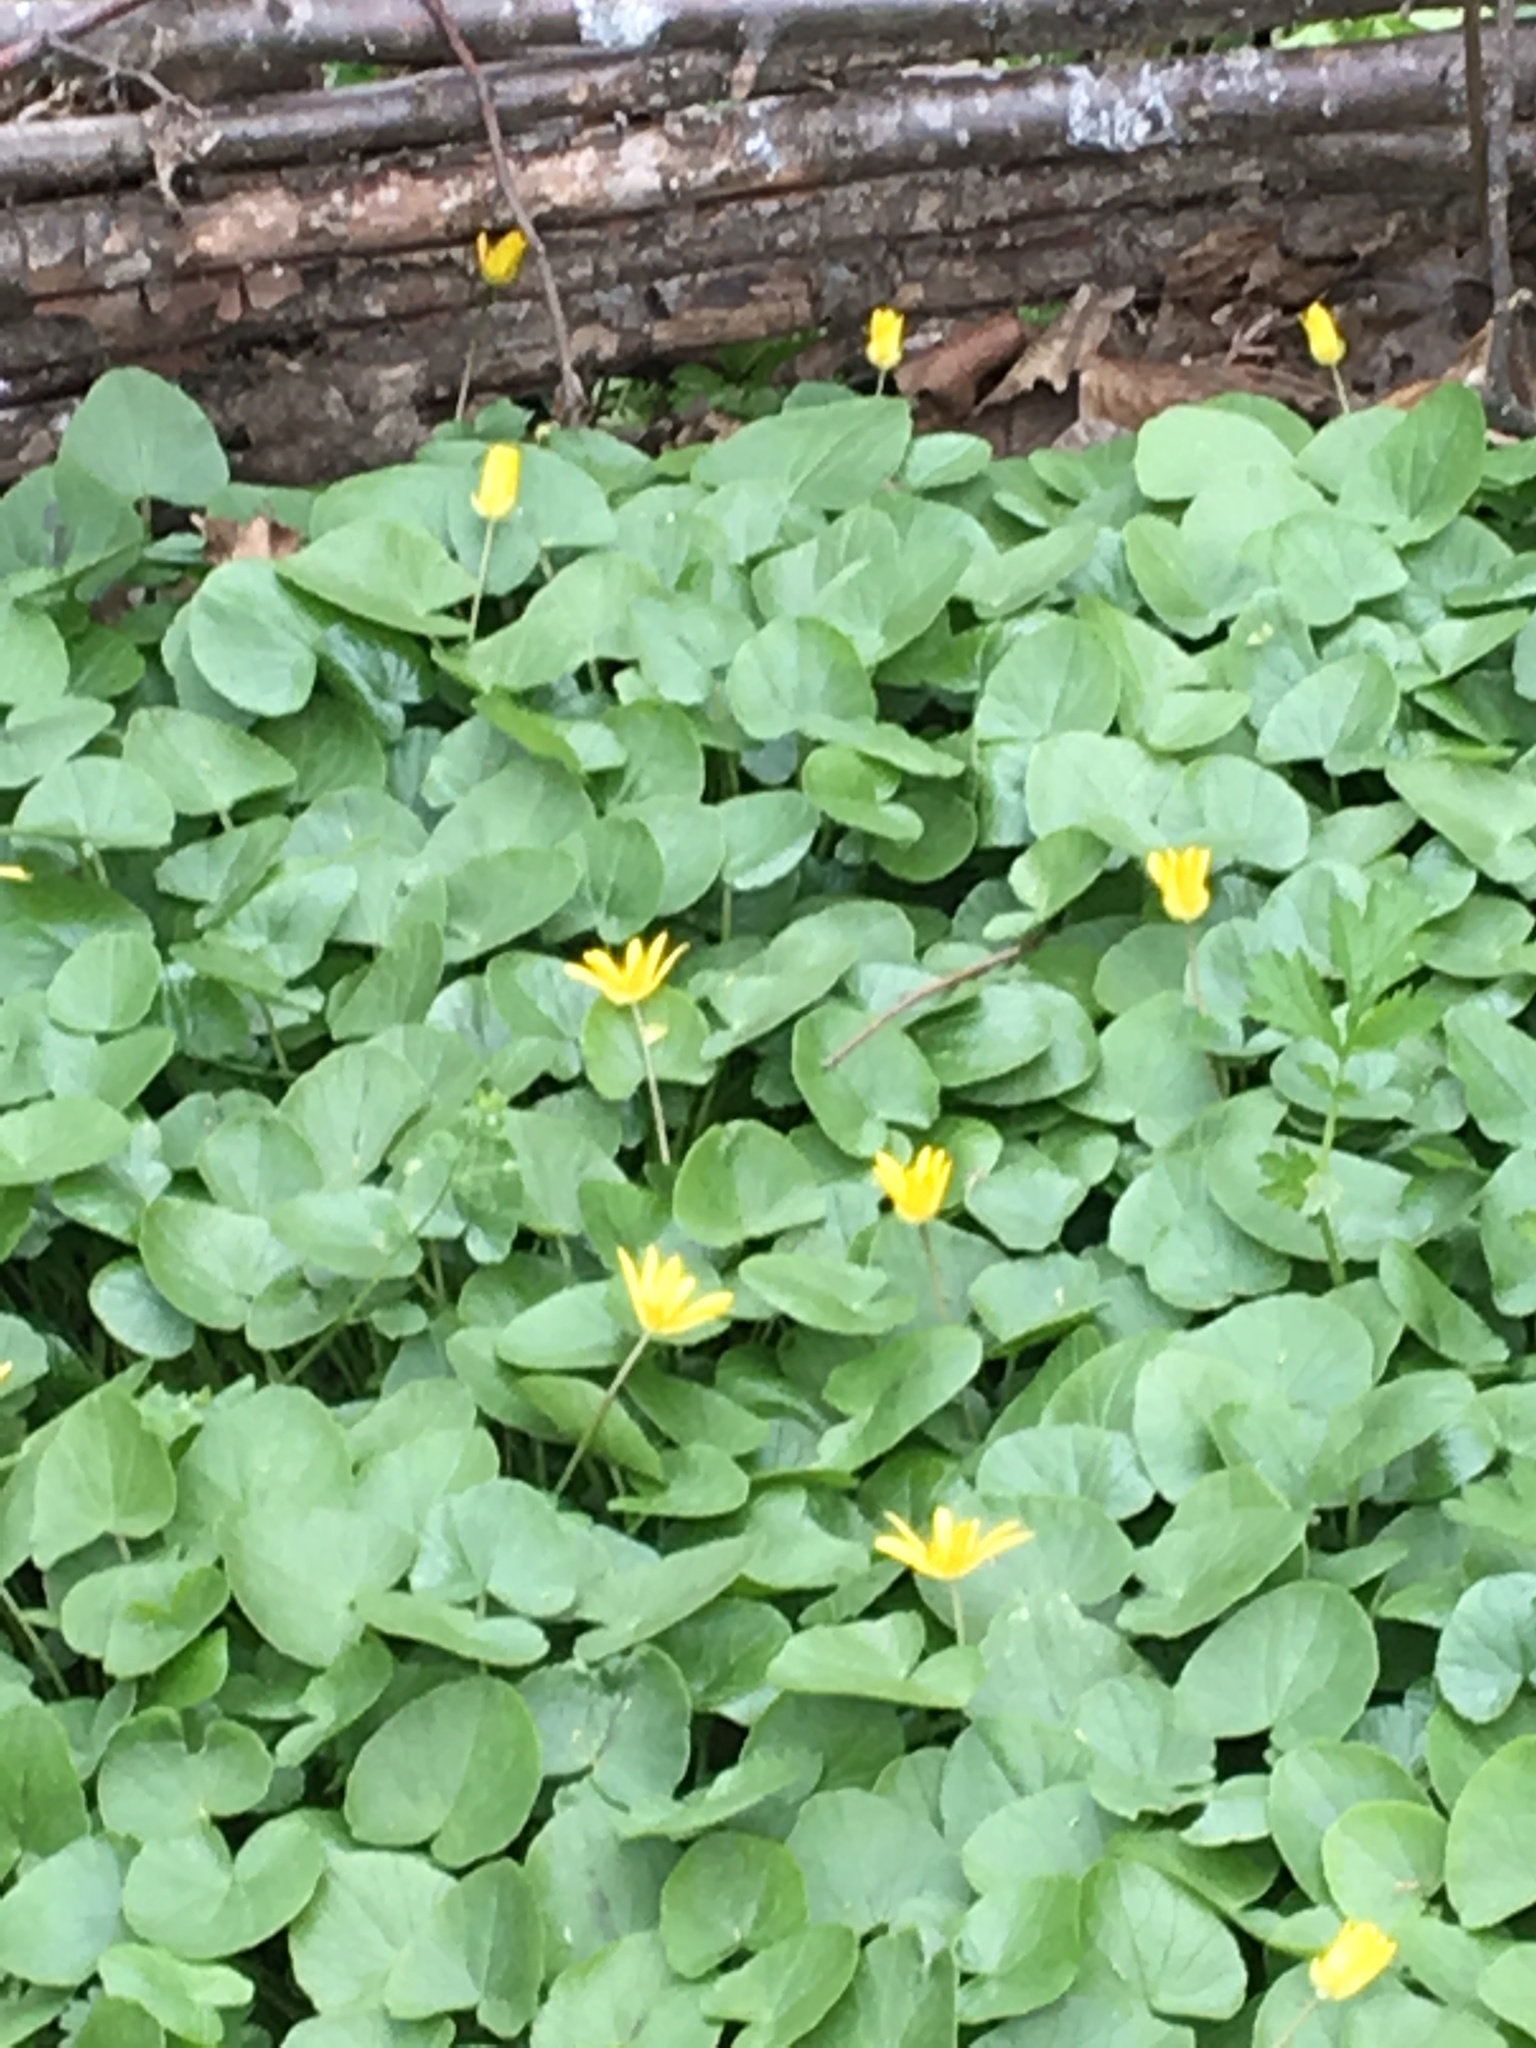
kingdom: Plantae
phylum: Tracheophyta
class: Magnoliopsida
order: Ranunculales
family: Ranunculaceae
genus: Ficaria
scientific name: Ficaria verna
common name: Lesser celandine
